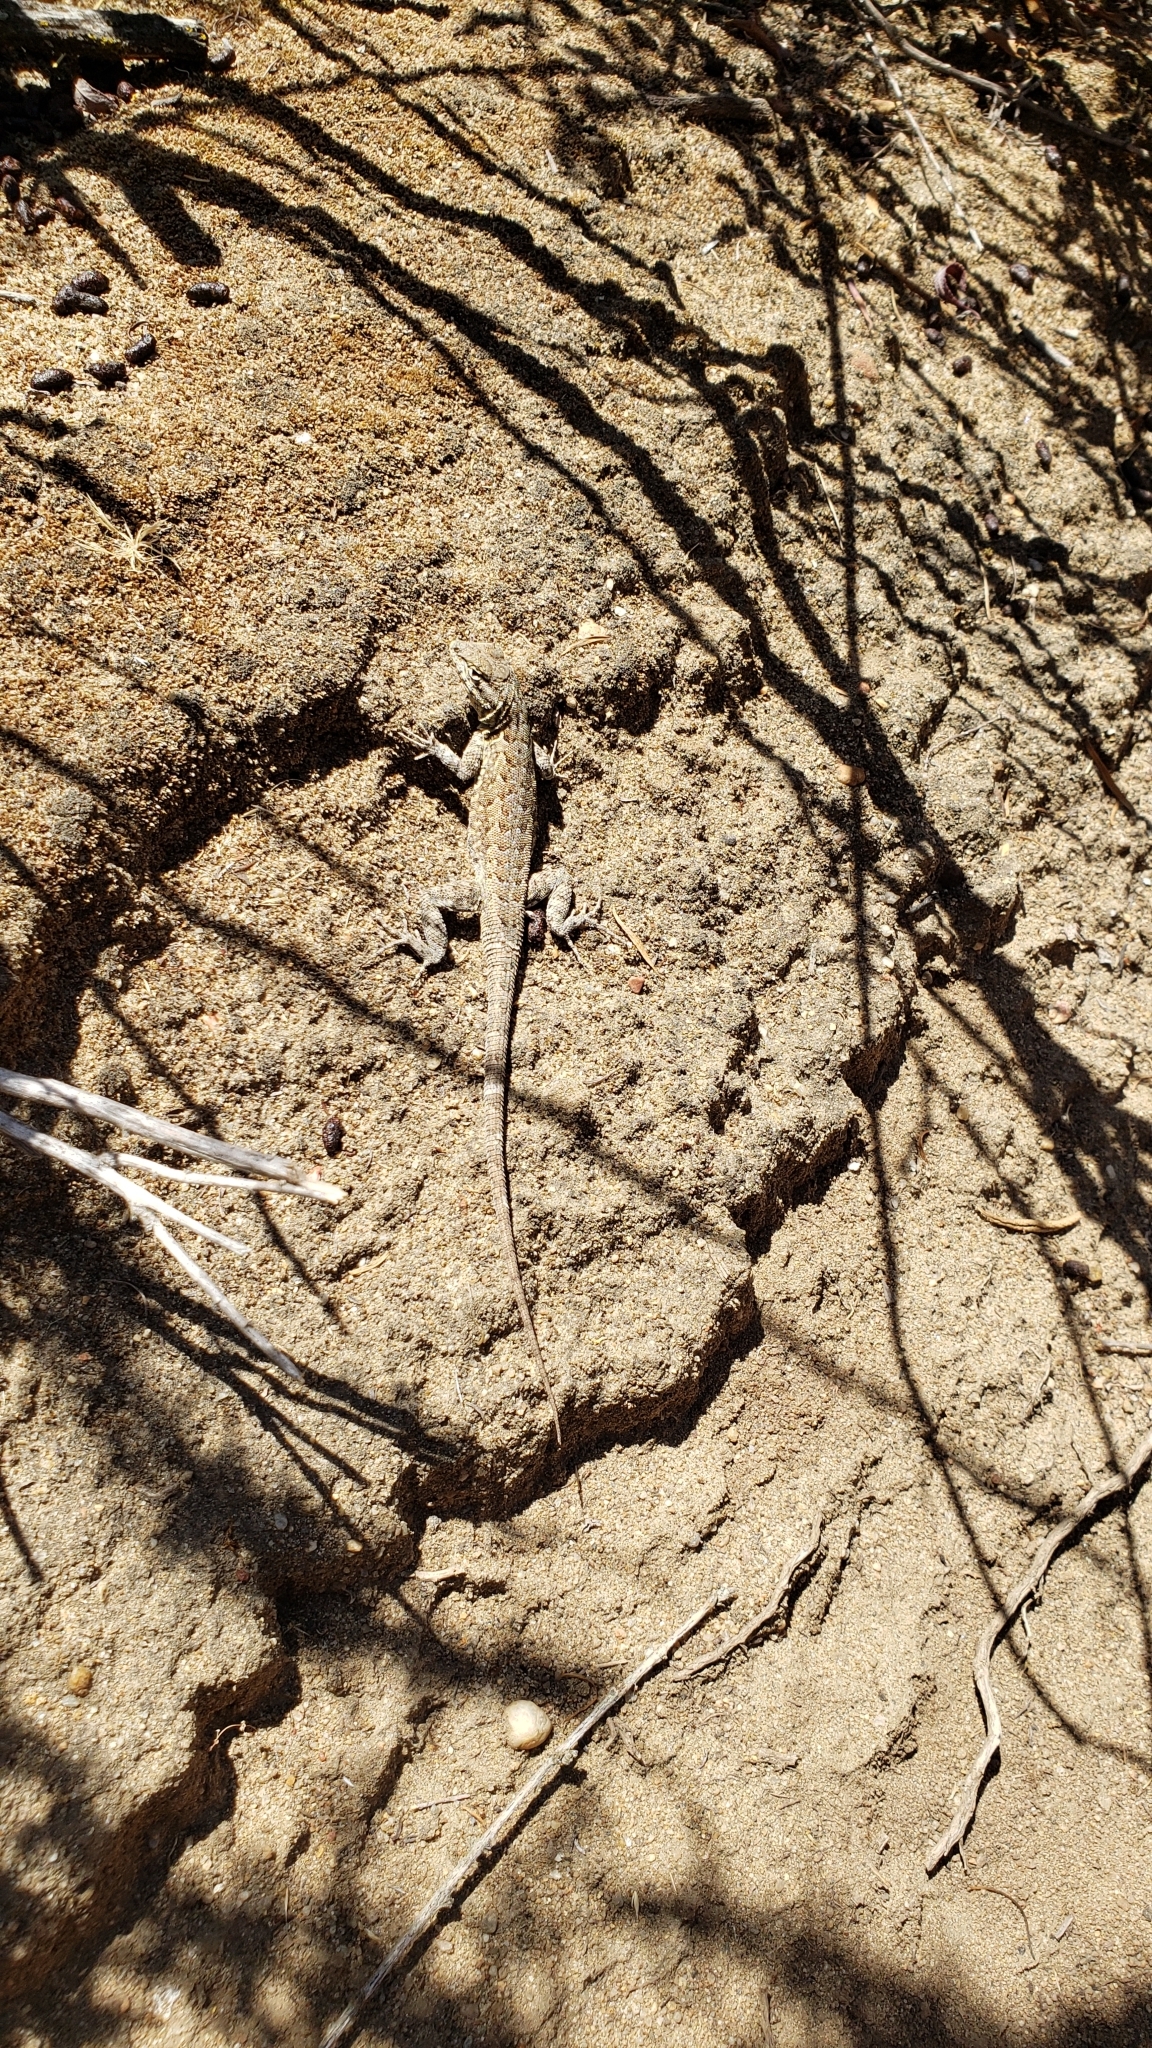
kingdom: Animalia
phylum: Chordata
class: Squamata
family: Phrynosomatidae
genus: Uta
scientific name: Uta stansburiana
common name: Side-blotched lizard
